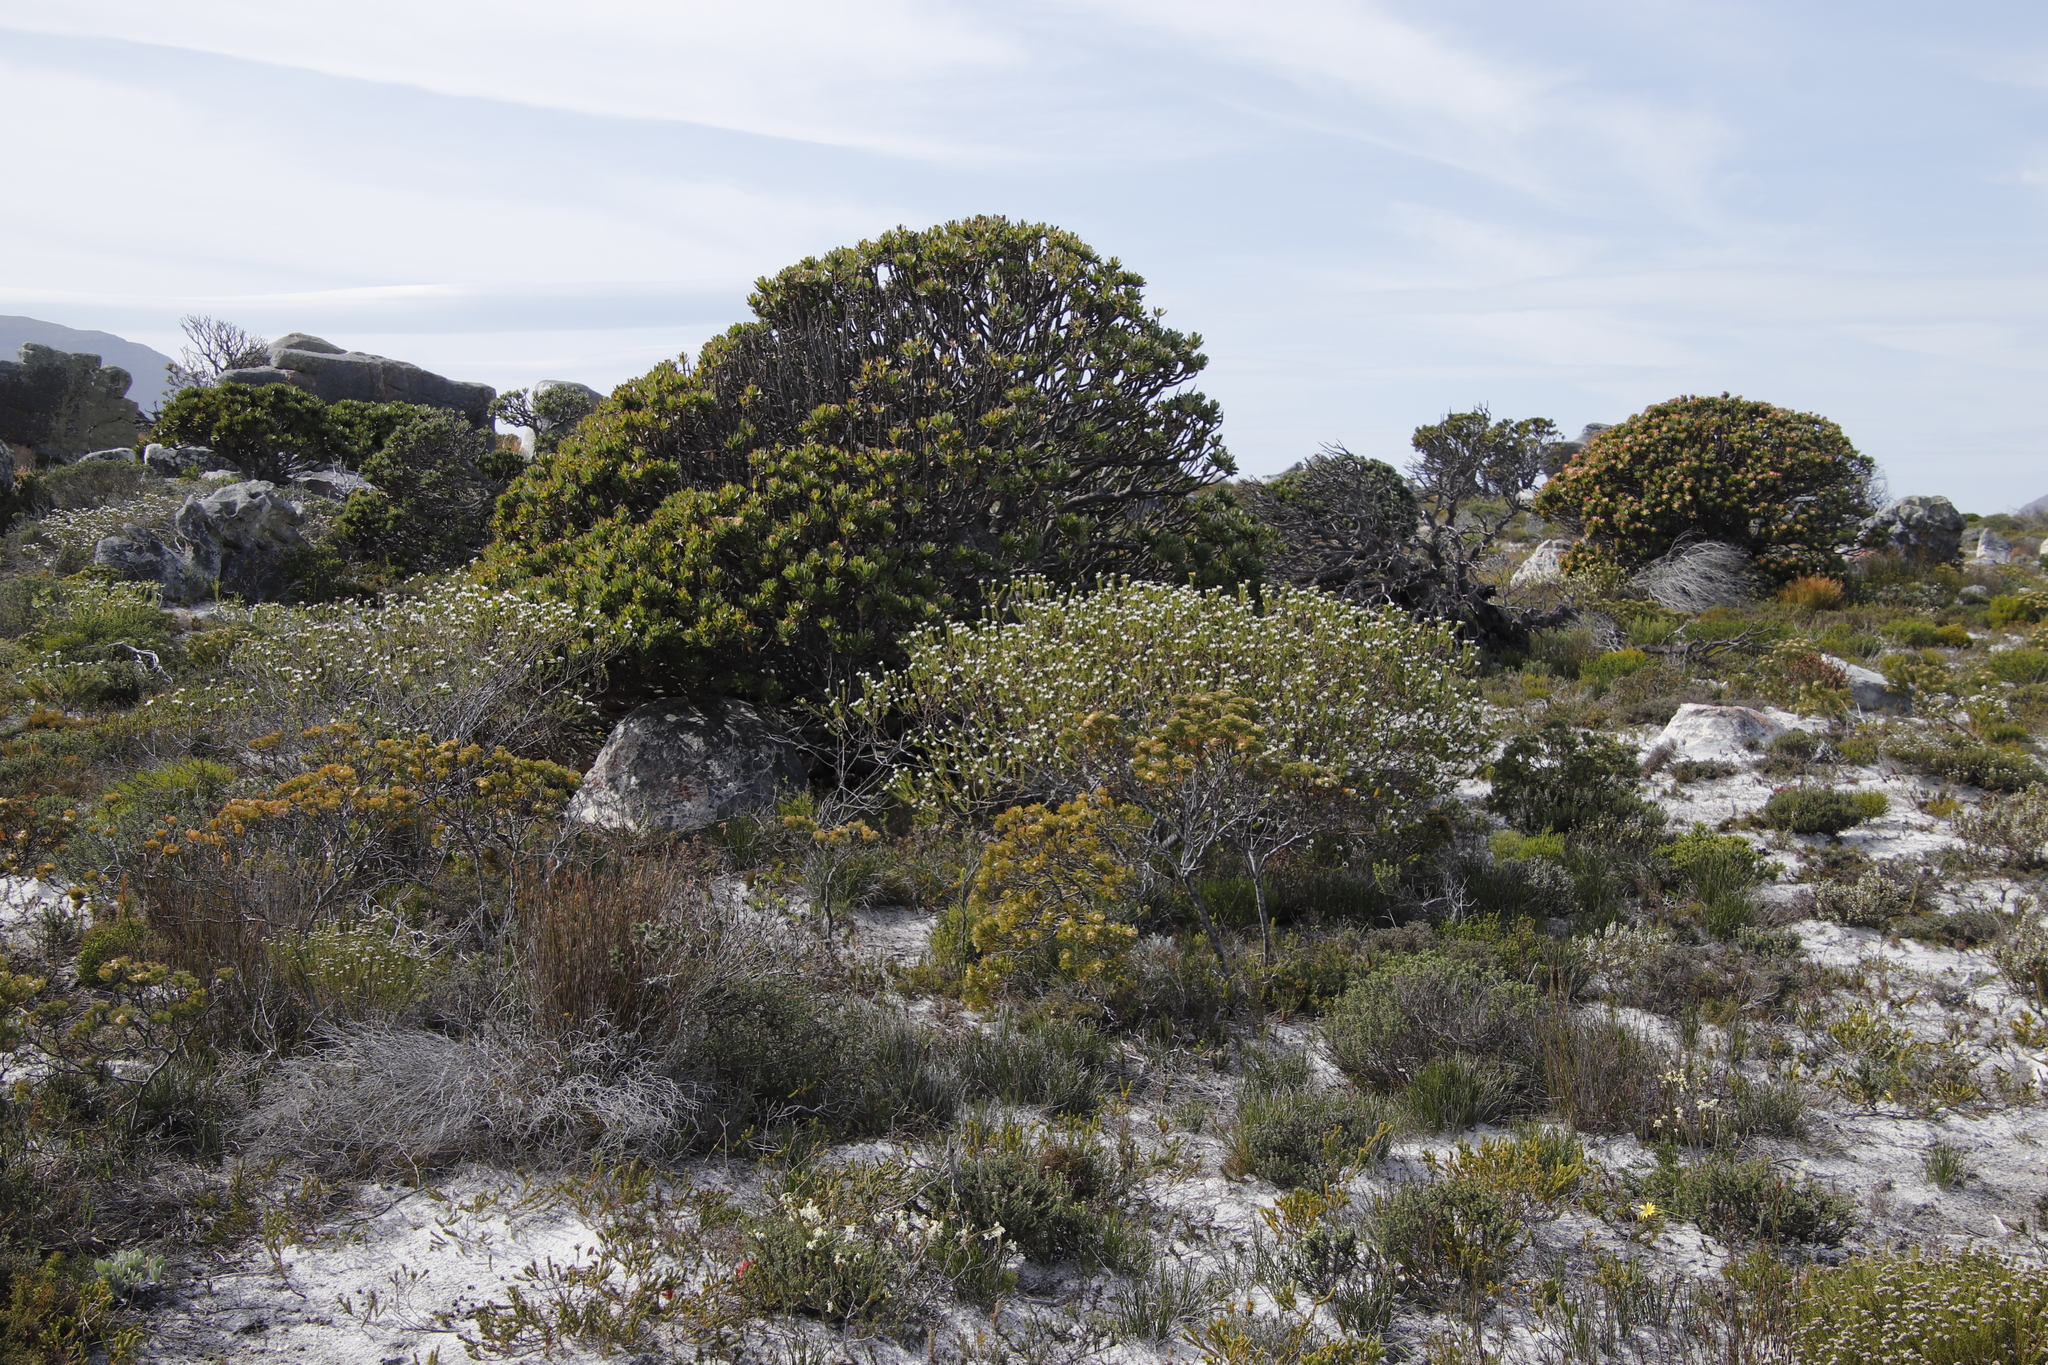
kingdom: Plantae
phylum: Tracheophyta
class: Magnoliopsida
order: Bruniales
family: Bruniaceae
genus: Staavia
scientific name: Staavia dodii
